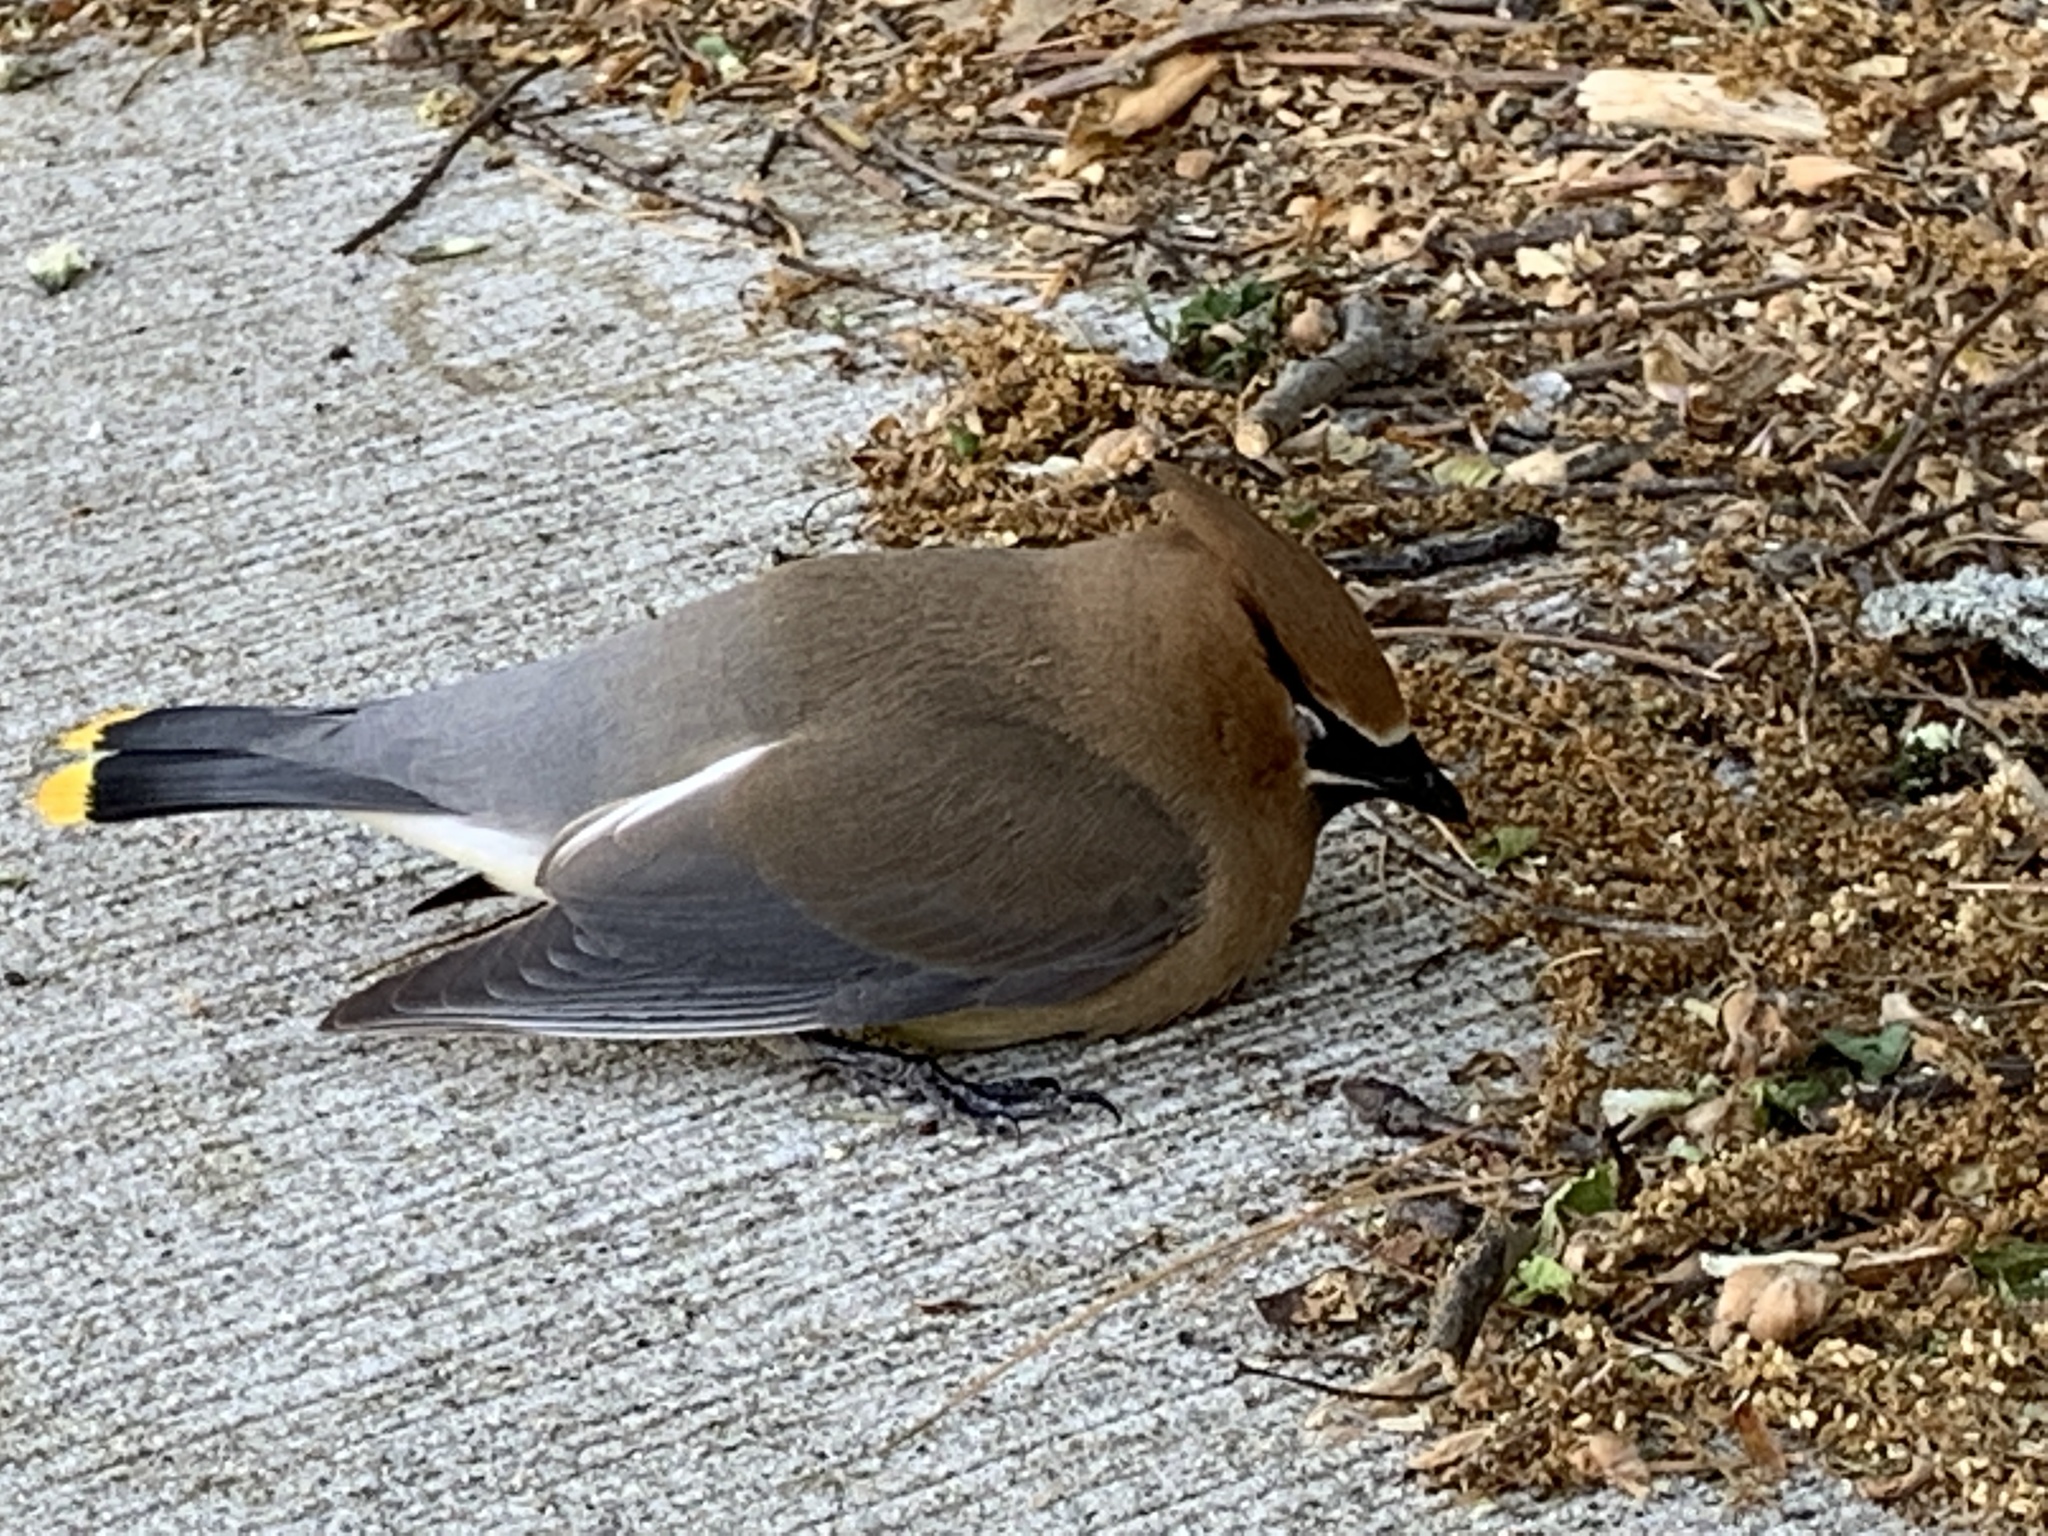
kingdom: Animalia
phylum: Chordata
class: Aves
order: Passeriformes
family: Bombycillidae
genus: Bombycilla
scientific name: Bombycilla cedrorum
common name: Cedar waxwing
